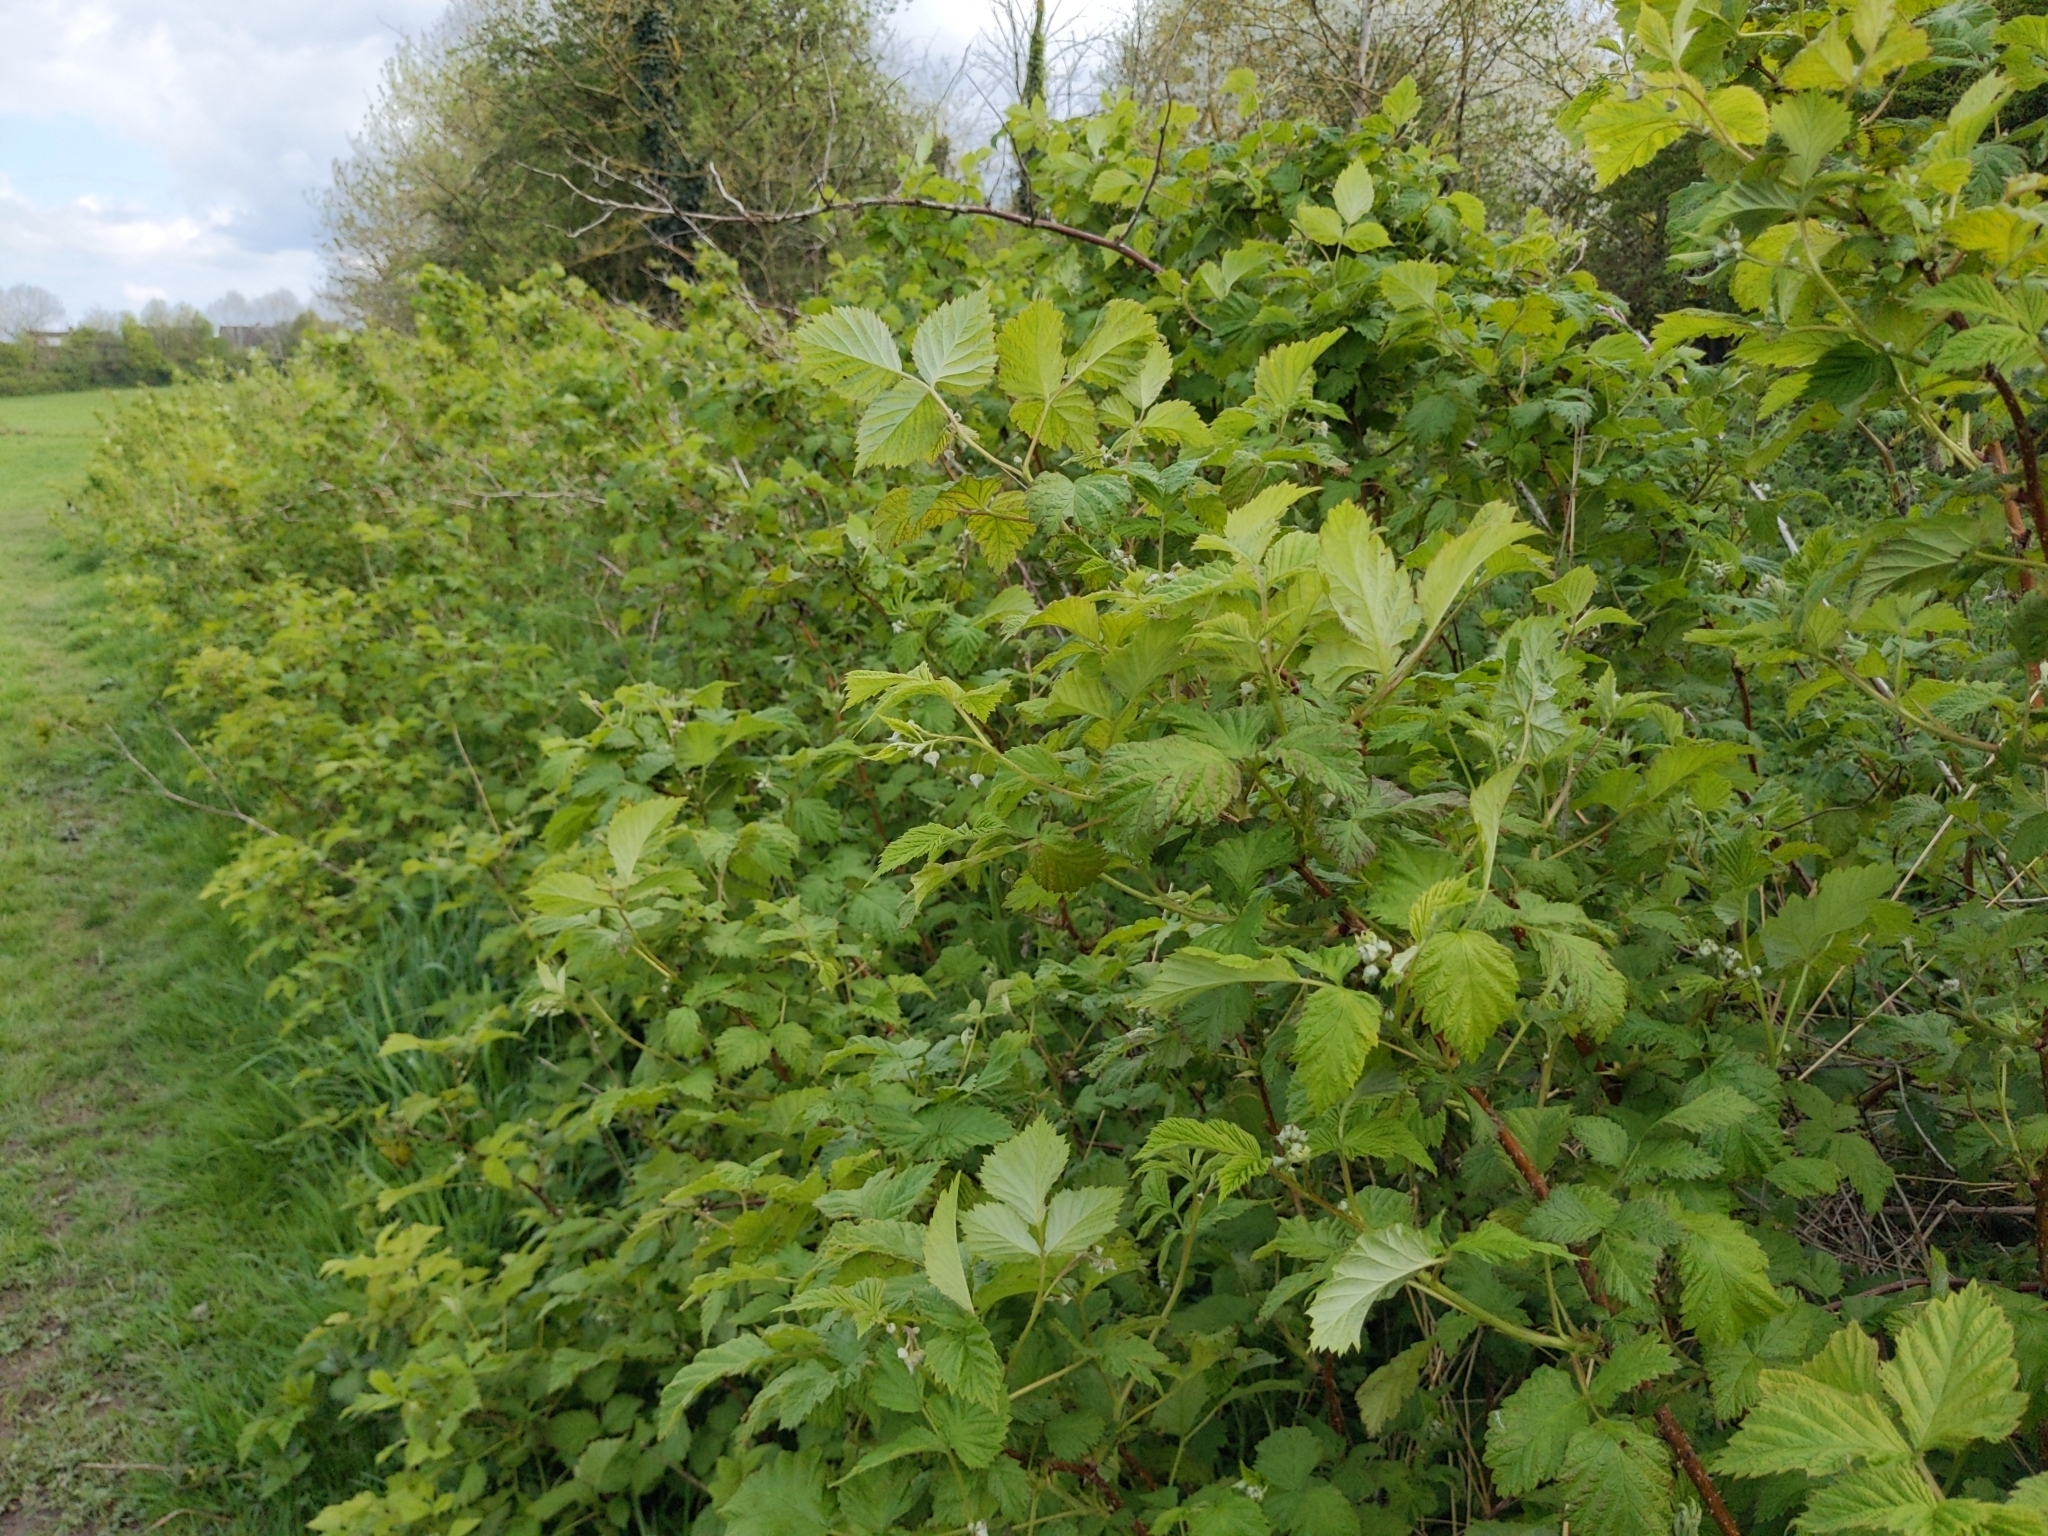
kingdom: Plantae
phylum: Tracheophyta
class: Magnoliopsida
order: Rosales
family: Rosaceae
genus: Rubus
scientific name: Rubus idaeus
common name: Raspberry
